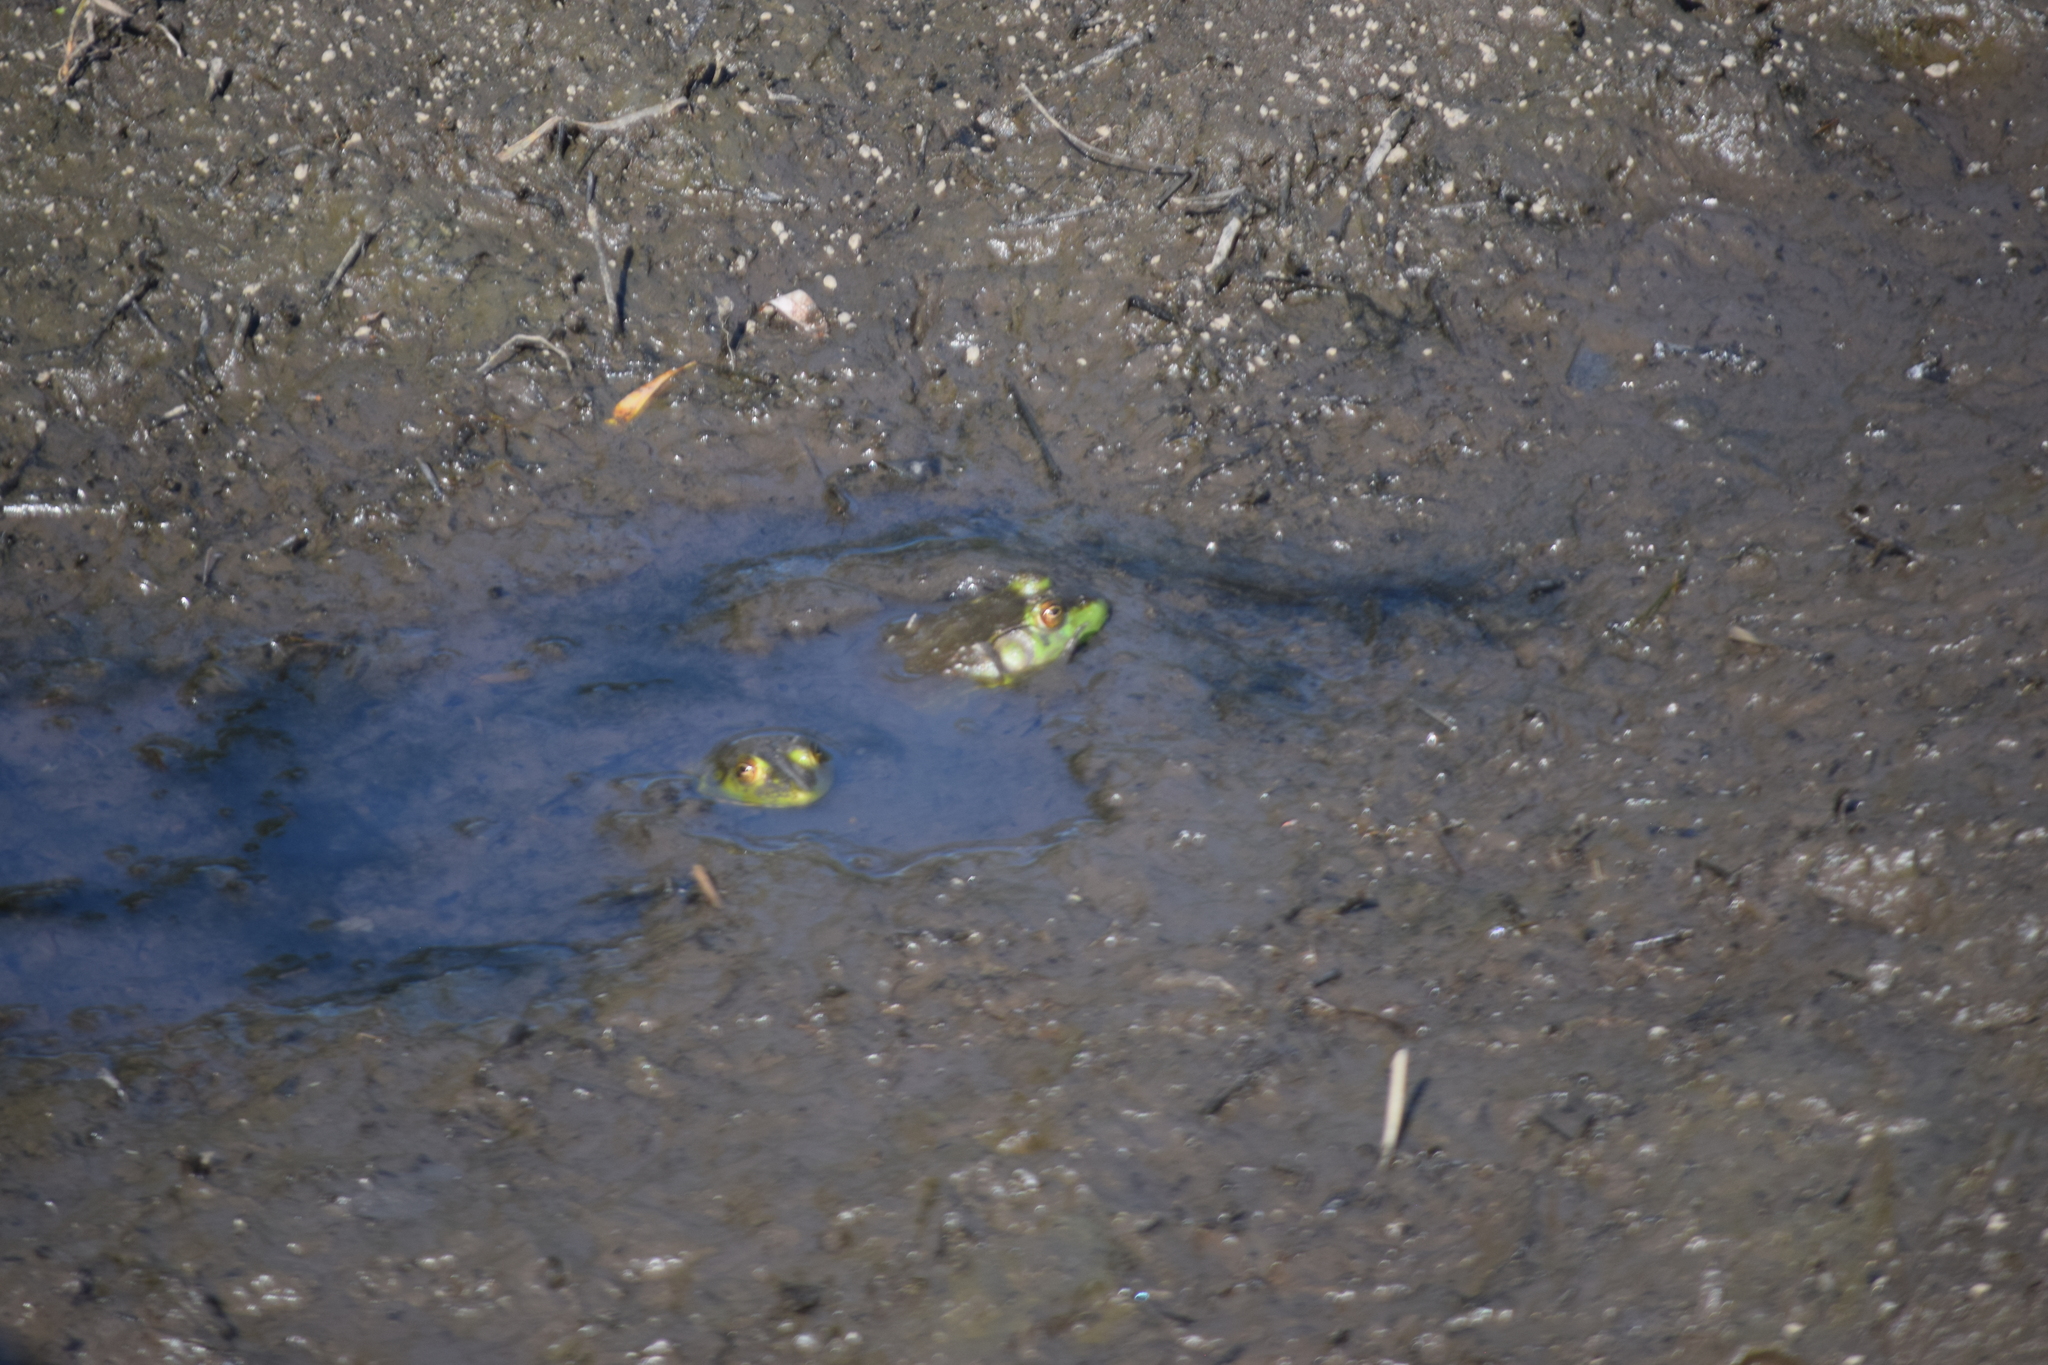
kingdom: Animalia
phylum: Chordata
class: Amphibia
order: Anura
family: Ranidae
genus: Lithobates
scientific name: Lithobates catesbeianus
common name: American bullfrog
